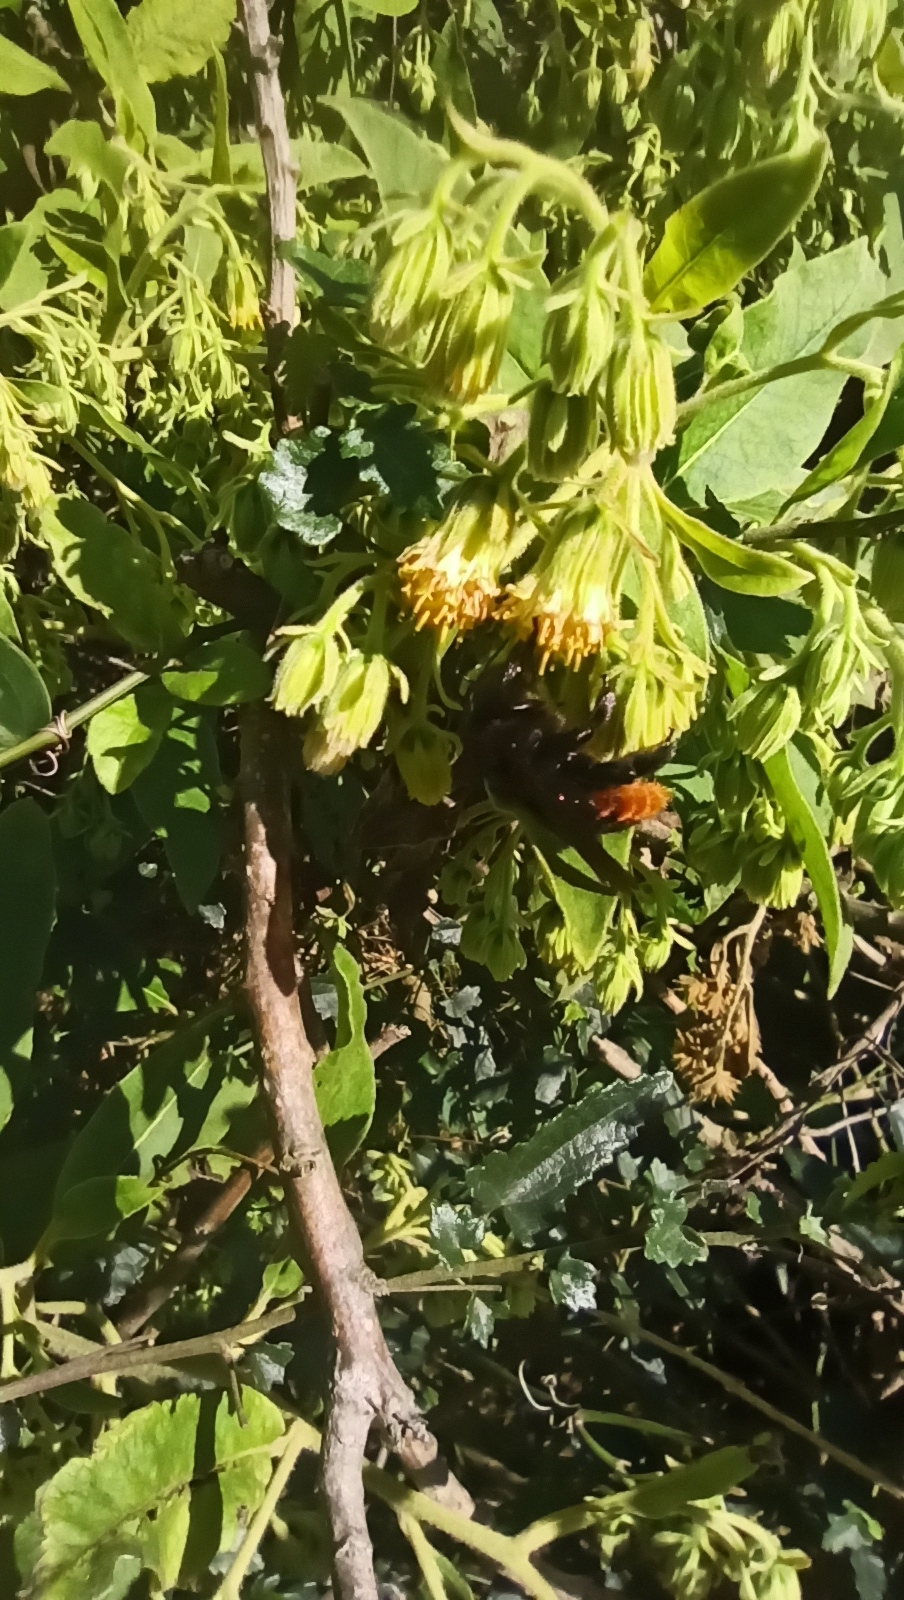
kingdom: Plantae
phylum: Tracheophyta
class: Magnoliopsida
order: Asterales
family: Asteraceae
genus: Trixis
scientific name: Trixis praestans
